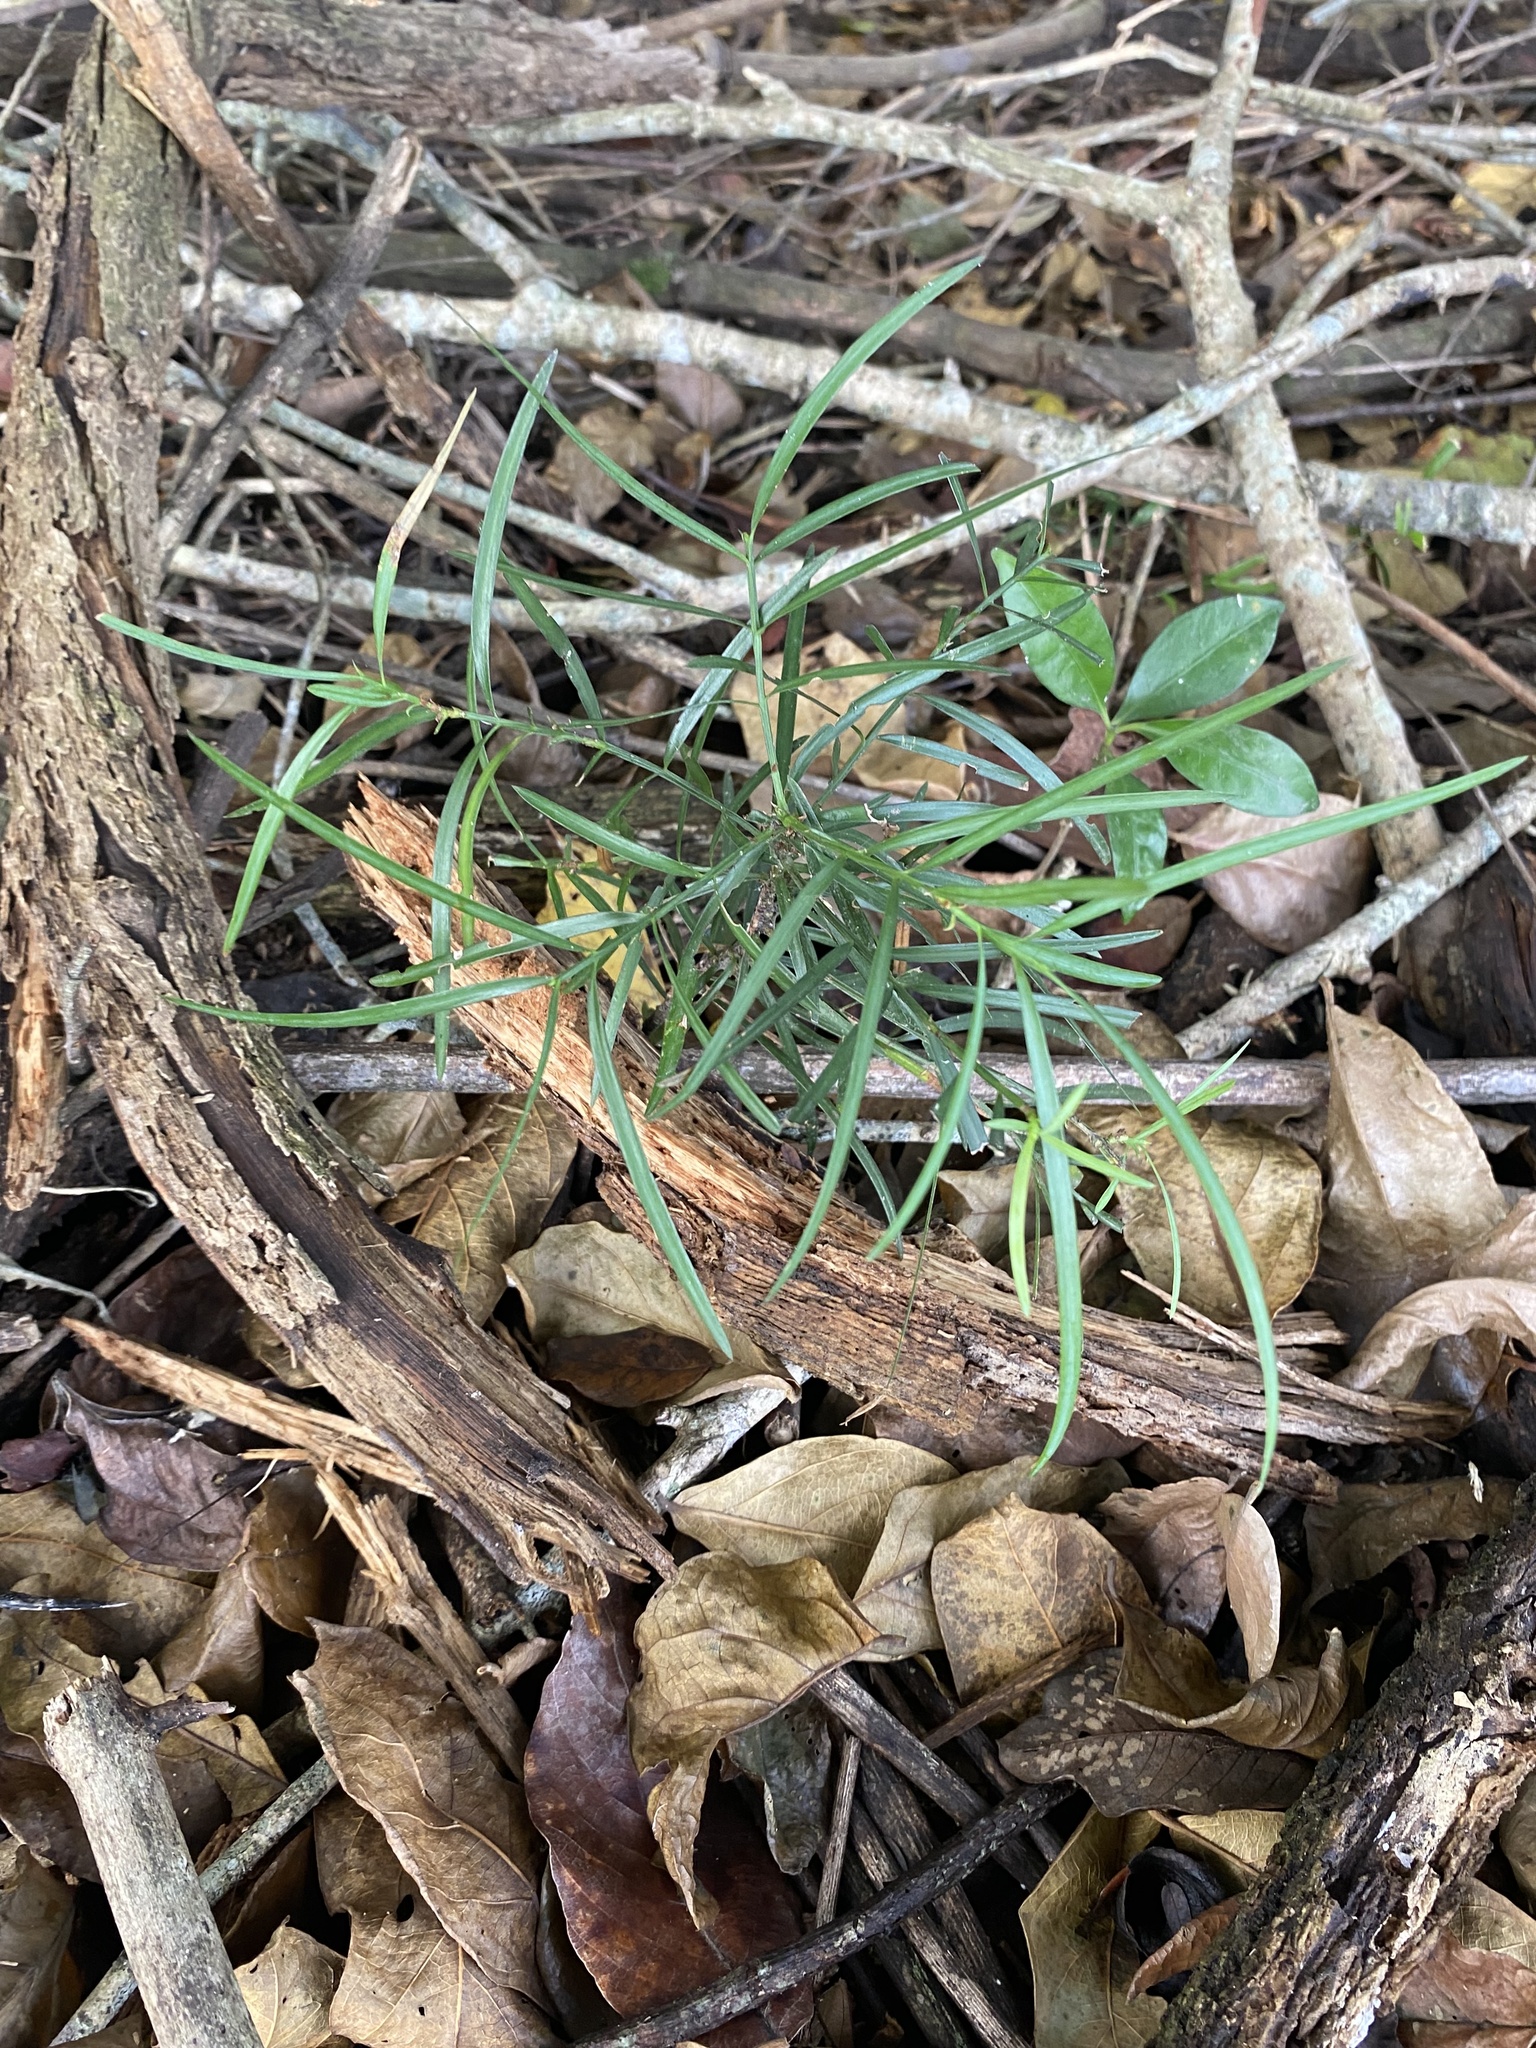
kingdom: Plantae
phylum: Tracheophyta
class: Liliopsida
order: Asparagales
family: Asparagaceae
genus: Asparagus
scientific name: Asparagus falcatus
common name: Asparagus
